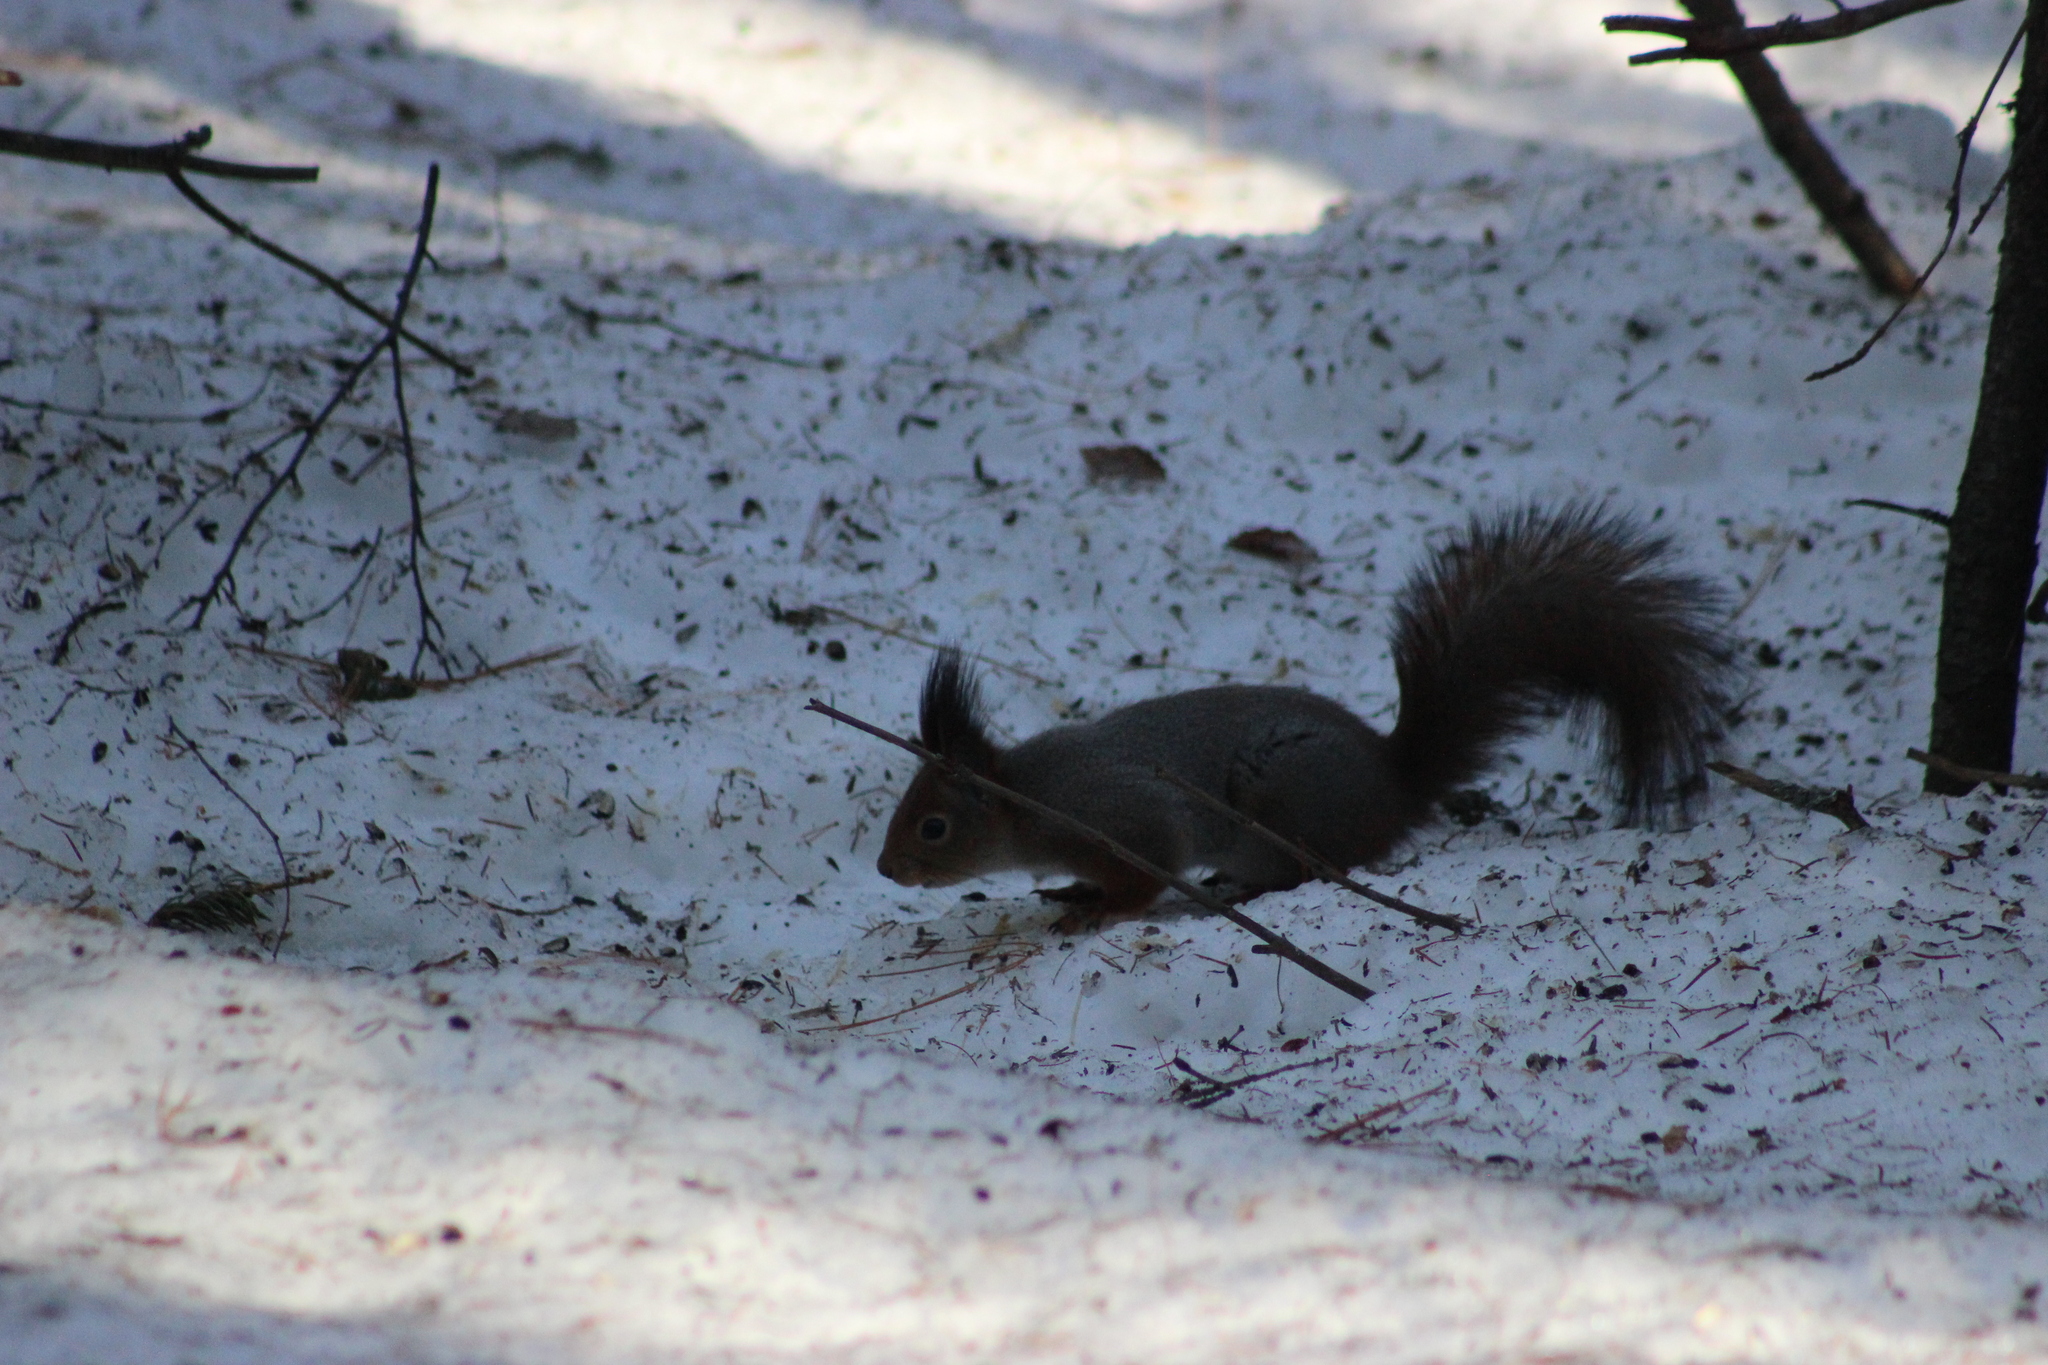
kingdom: Animalia
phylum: Chordata
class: Mammalia
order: Rodentia
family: Sciuridae
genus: Sciurus
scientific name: Sciurus vulgaris
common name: Eurasian red squirrel
